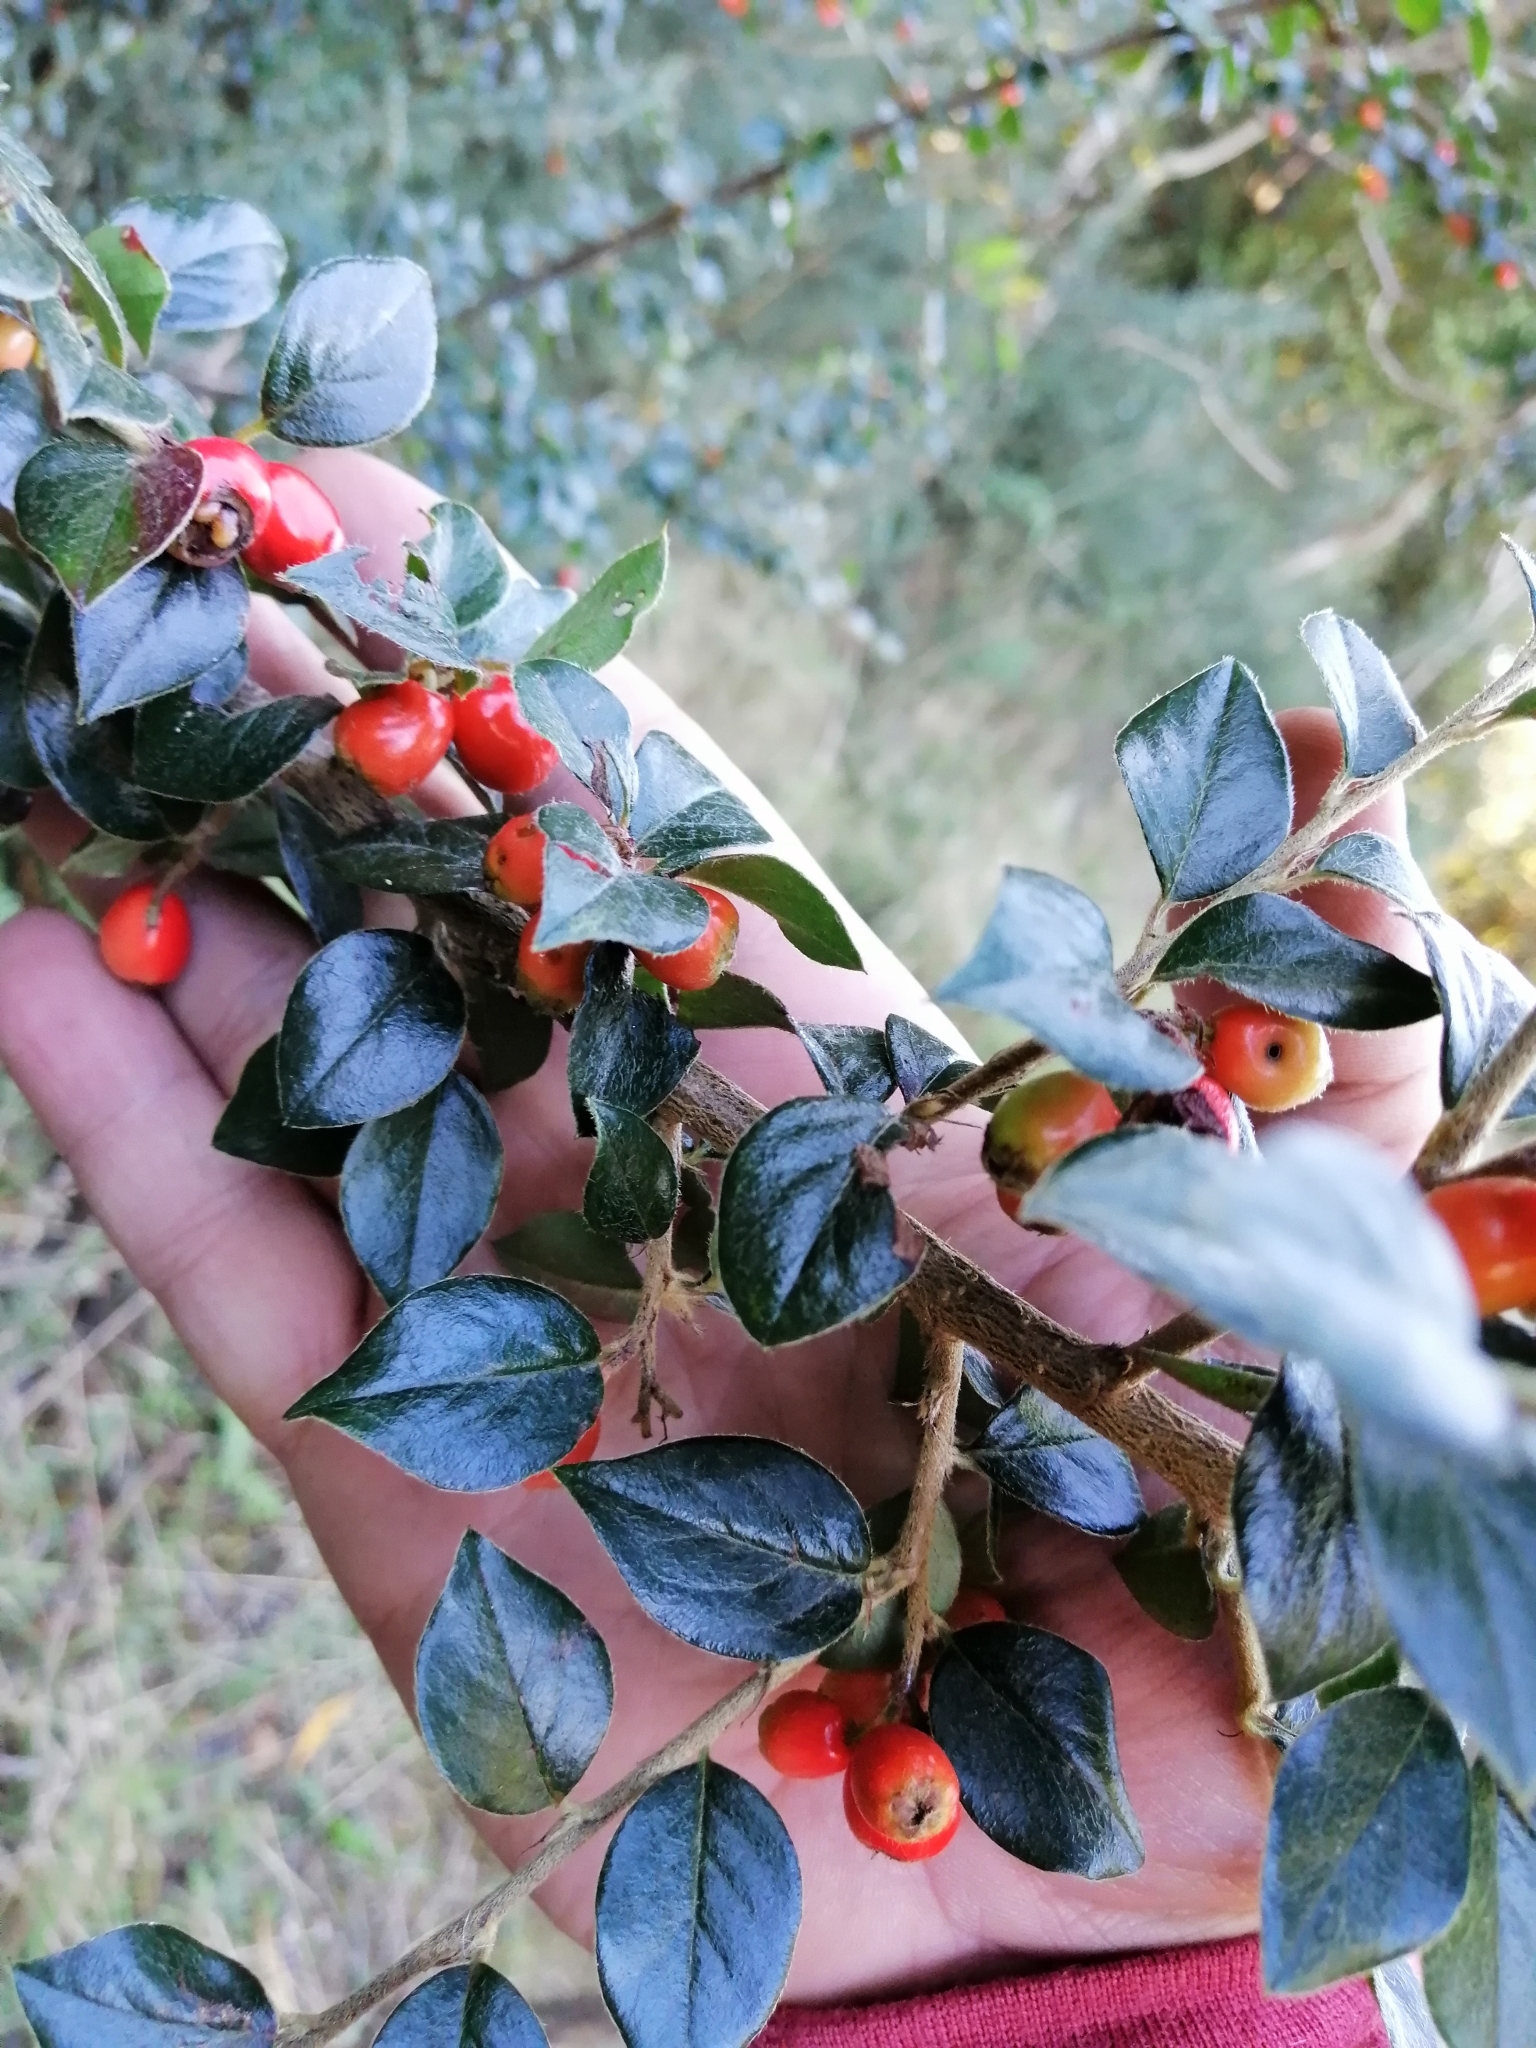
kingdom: Plantae
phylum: Tracheophyta
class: Magnoliopsida
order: Rosales
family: Rosaceae
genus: Cotoneaster
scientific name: Cotoneaster simonsii
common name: Himalayan cotoneaster
